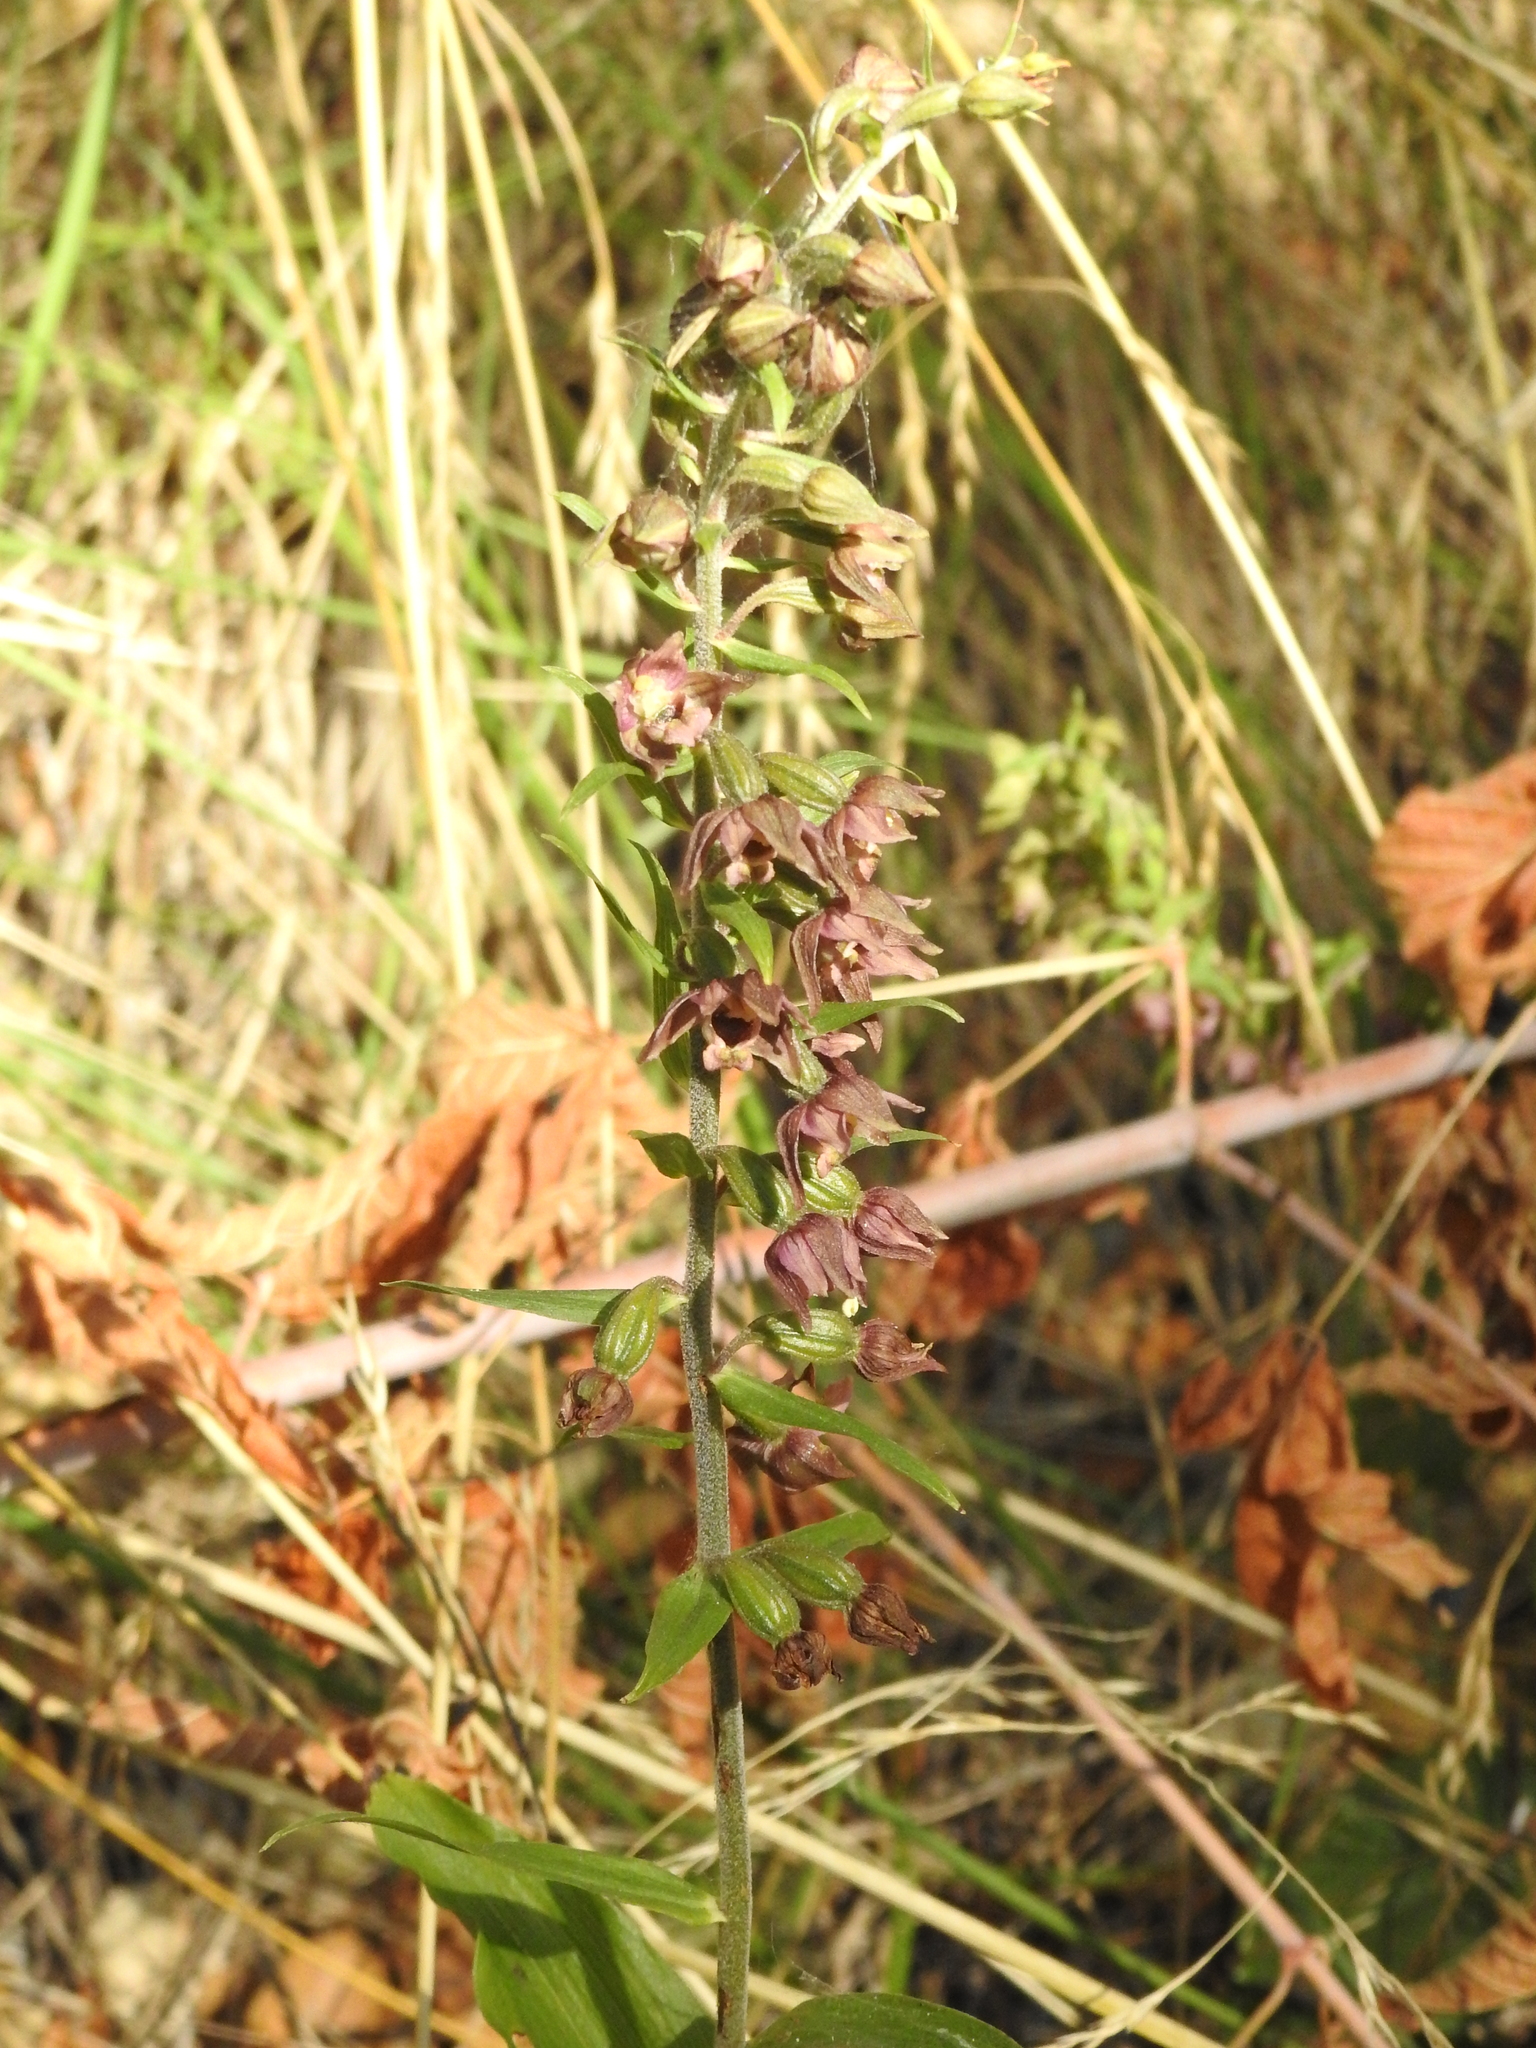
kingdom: Plantae
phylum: Tracheophyta
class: Liliopsida
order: Asparagales
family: Orchidaceae
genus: Epipactis
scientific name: Epipactis helleborine
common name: Broad-leaved helleborine
